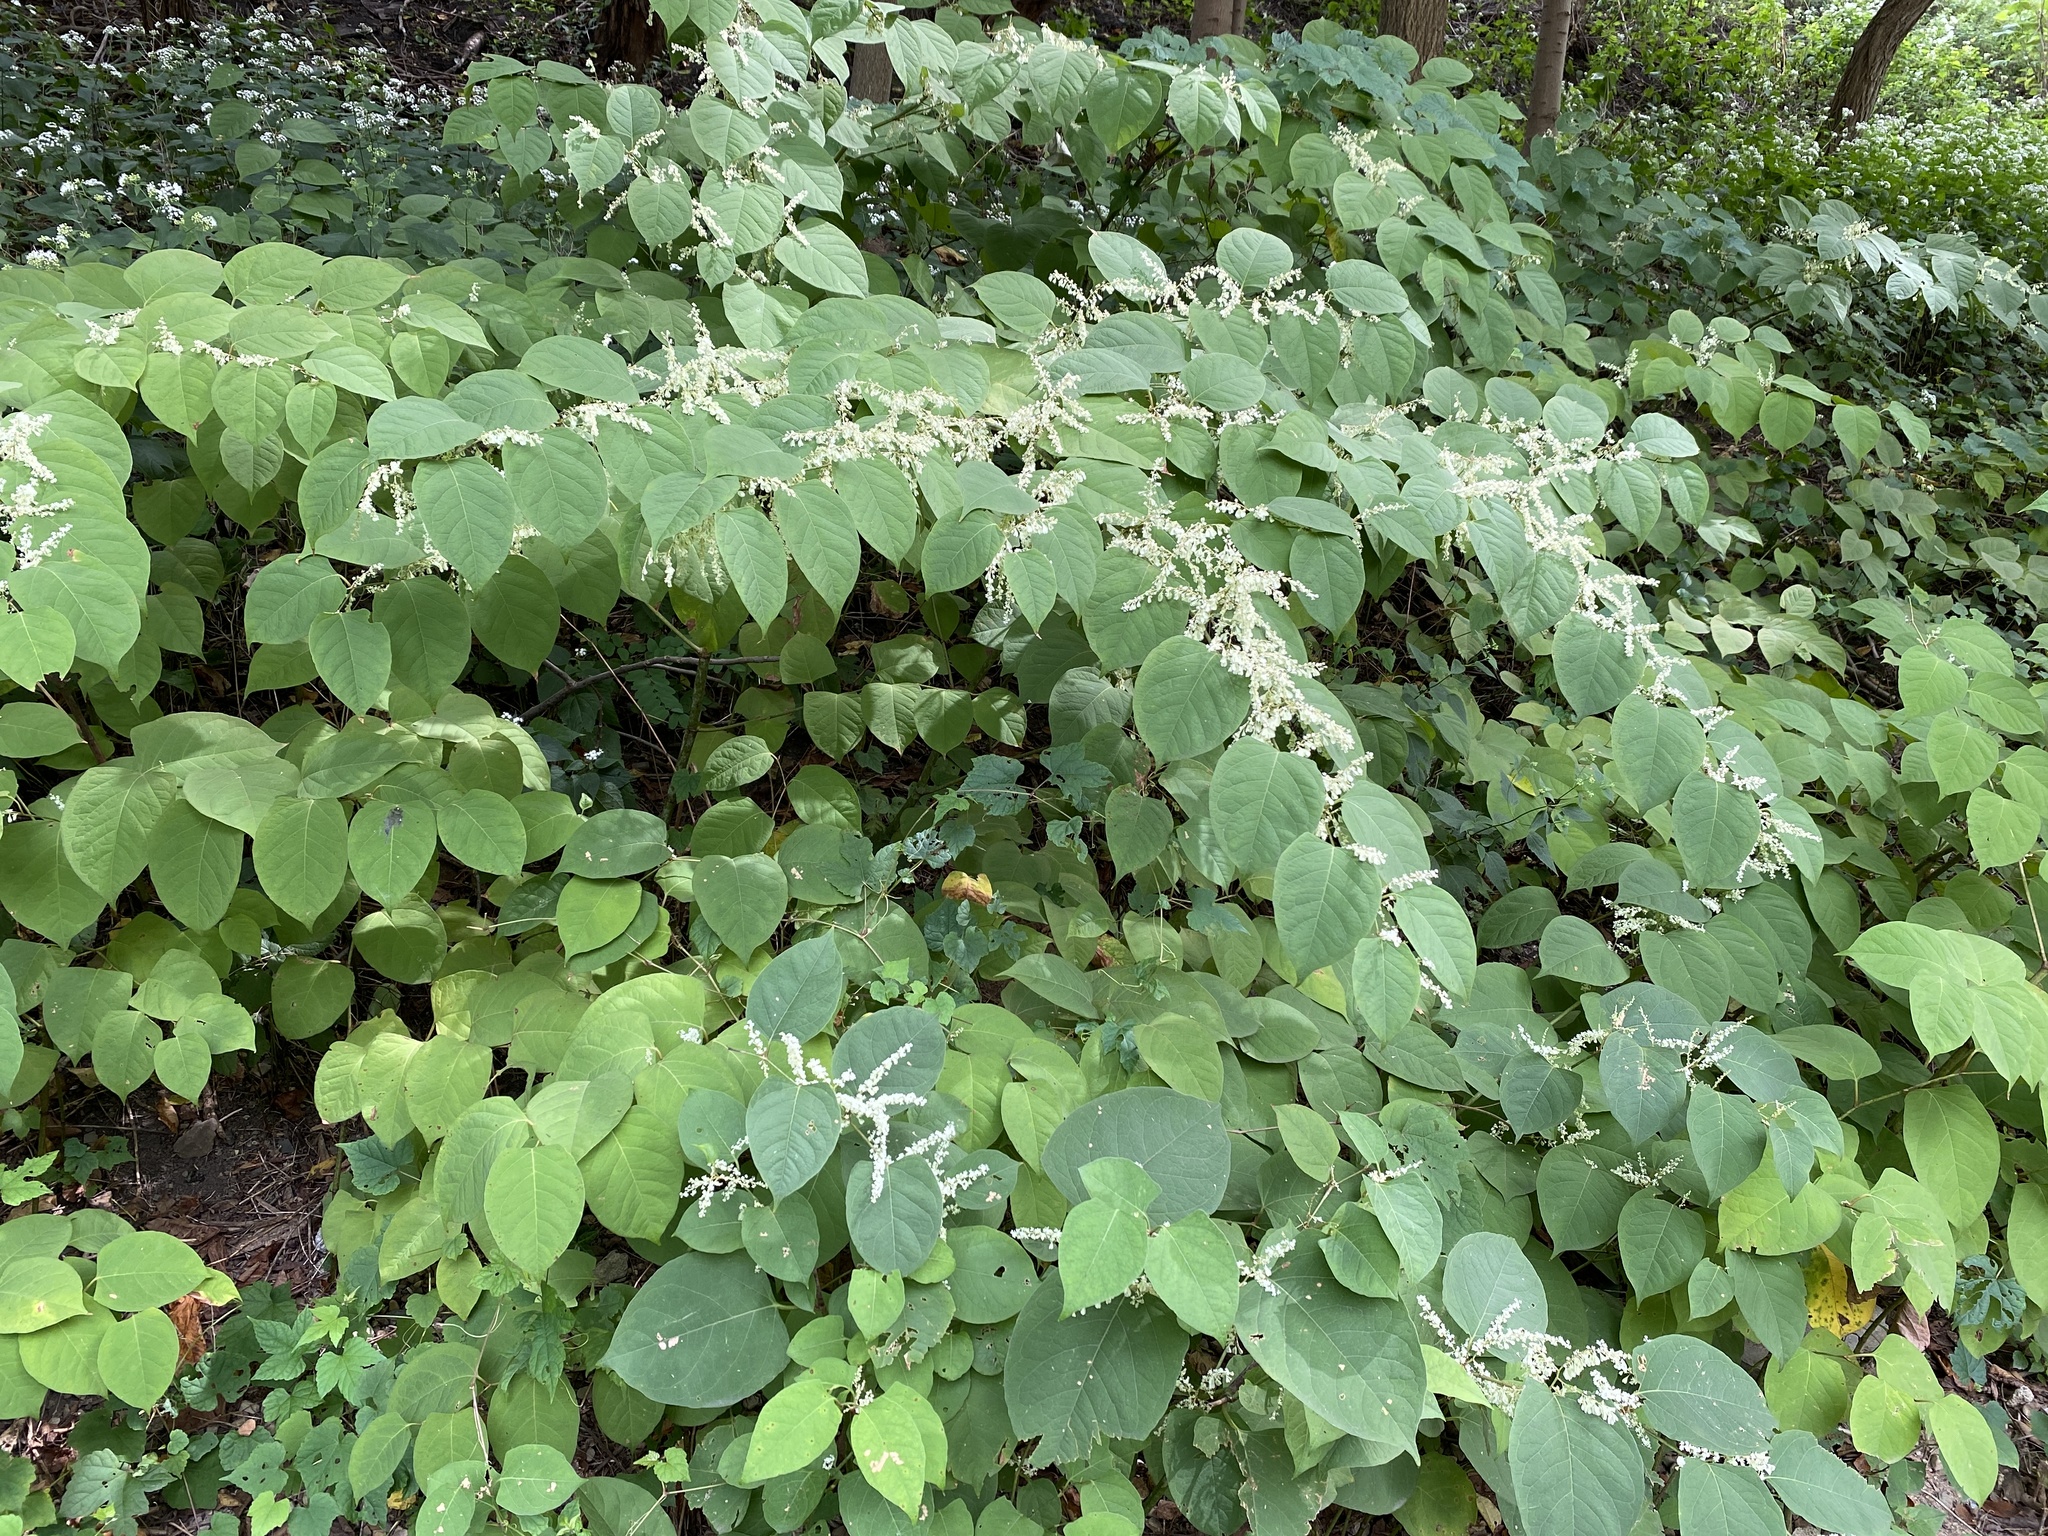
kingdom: Plantae
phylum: Tracheophyta
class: Magnoliopsida
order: Caryophyllales
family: Polygonaceae
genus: Reynoutria
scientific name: Reynoutria japonica
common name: Japanese knotweed
